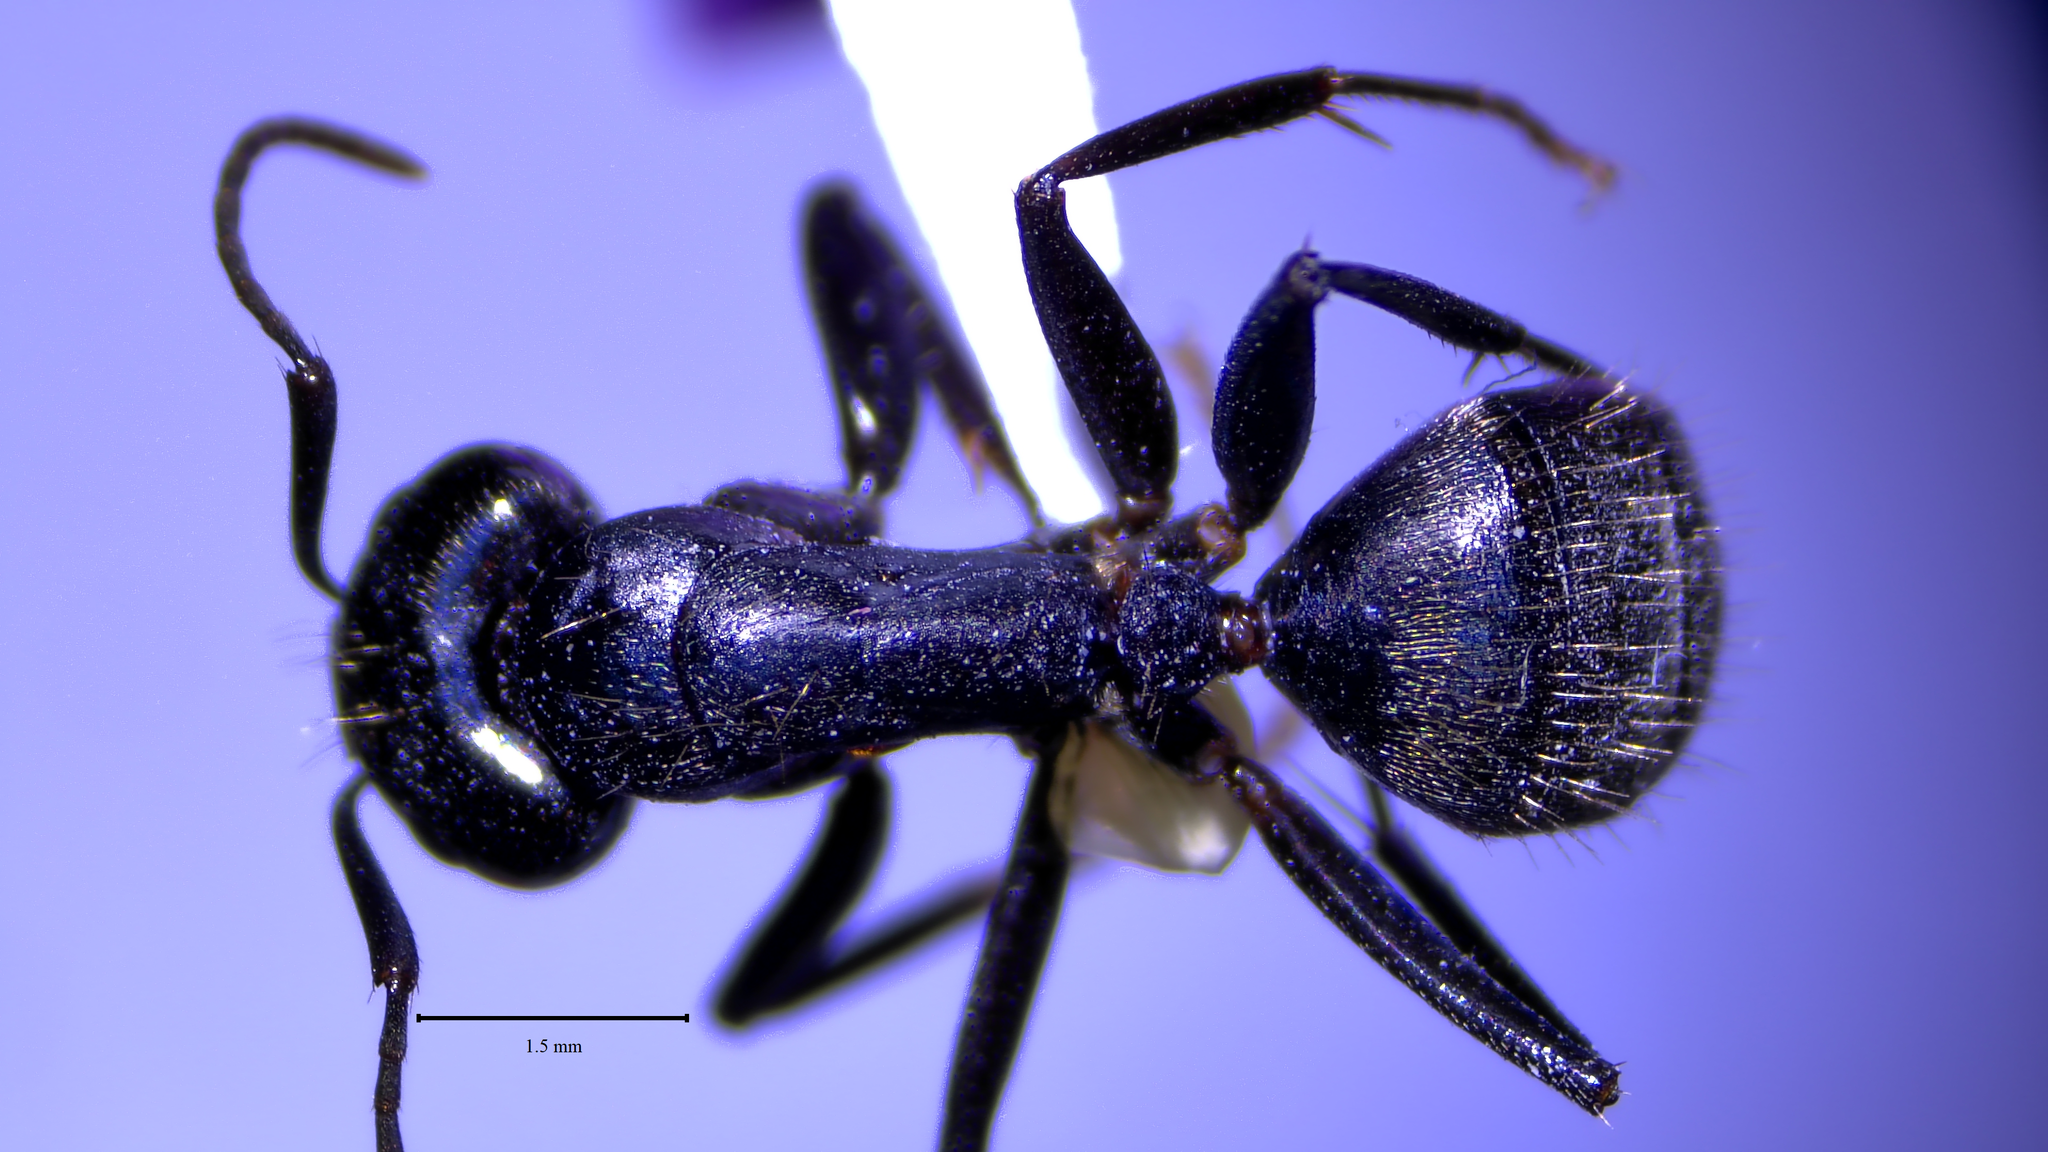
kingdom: Animalia
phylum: Arthropoda
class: Insecta
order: Hymenoptera
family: Formicidae
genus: Camponotus
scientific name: Camponotus pennsylvanicus
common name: Black carpenter ant
